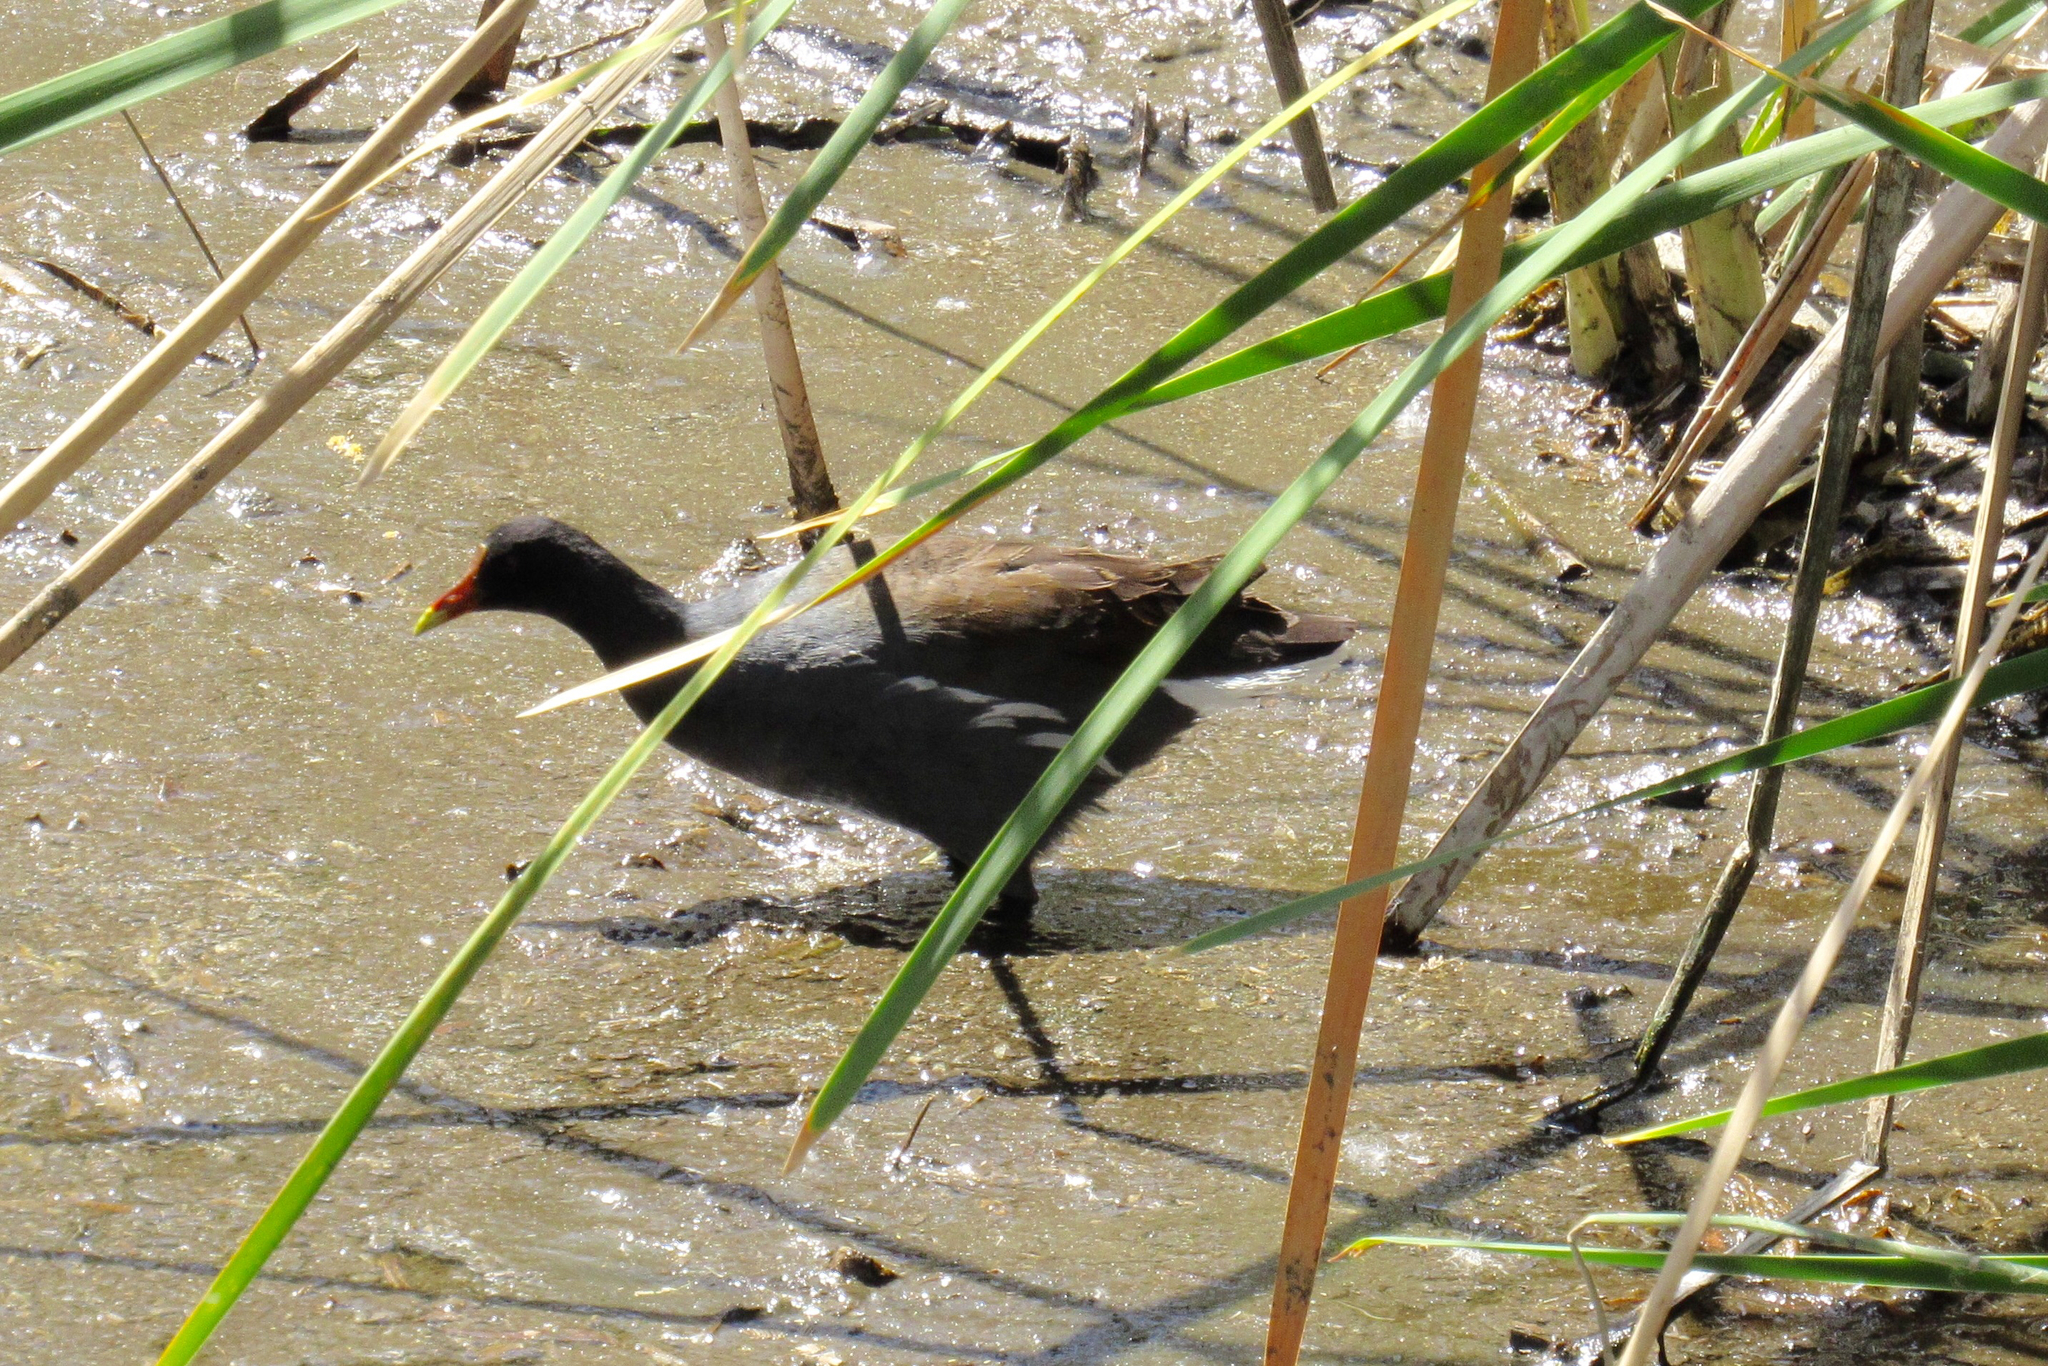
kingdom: Animalia
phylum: Chordata
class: Aves
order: Gruiformes
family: Rallidae
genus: Gallinula
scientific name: Gallinula chloropus
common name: Common moorhen
